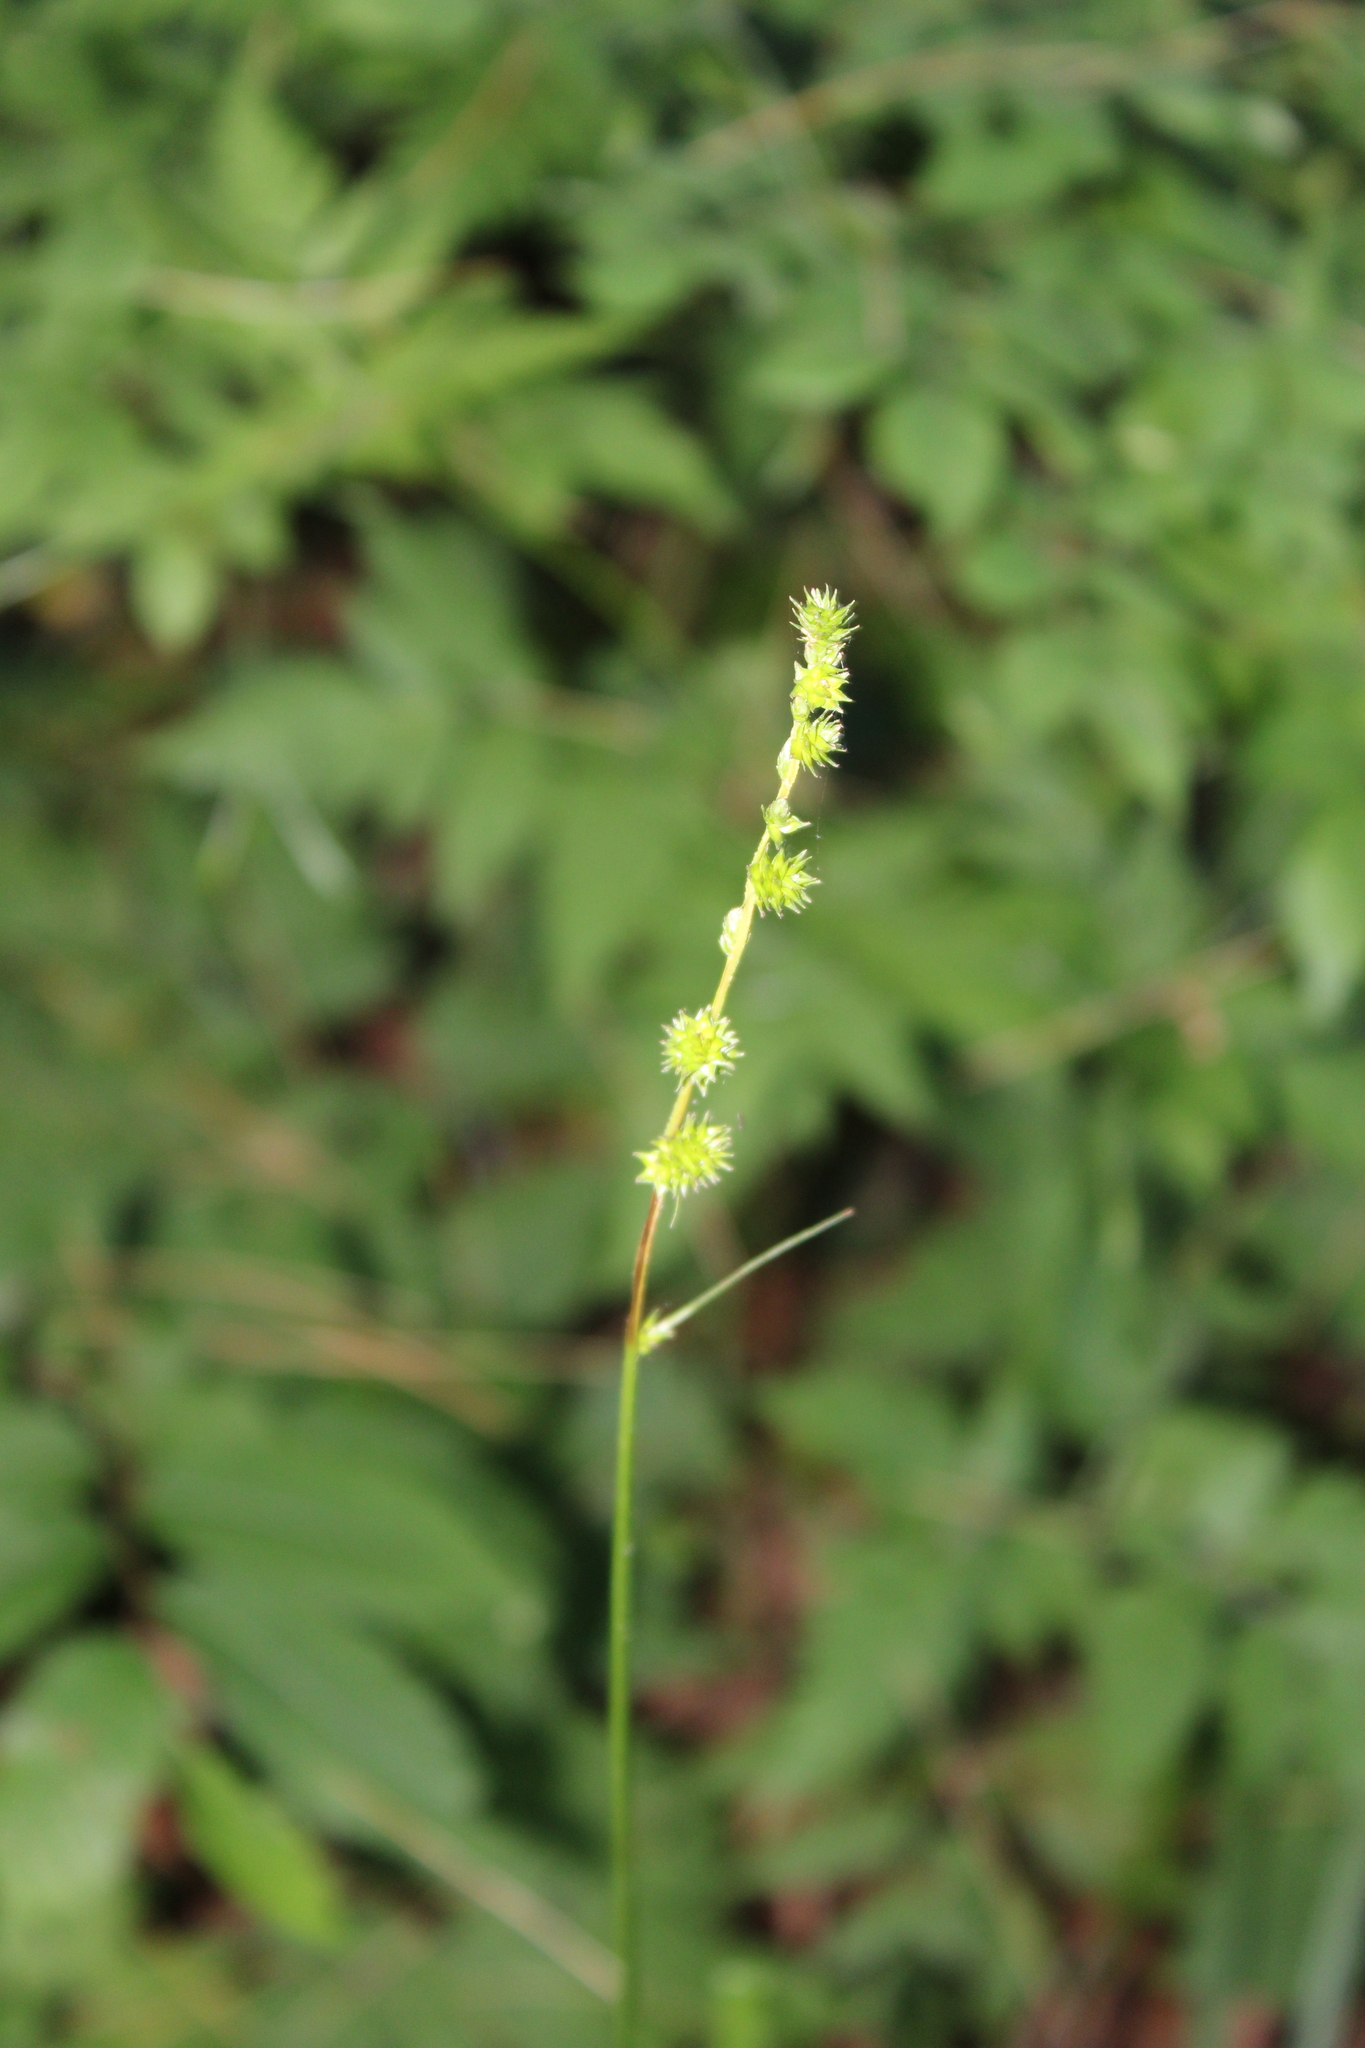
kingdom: Plantae
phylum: Tracheophyta
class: Liliopsida
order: Poales
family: Cyperaceae
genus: Carex
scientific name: Carex sparganioides
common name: Burreed sedge
